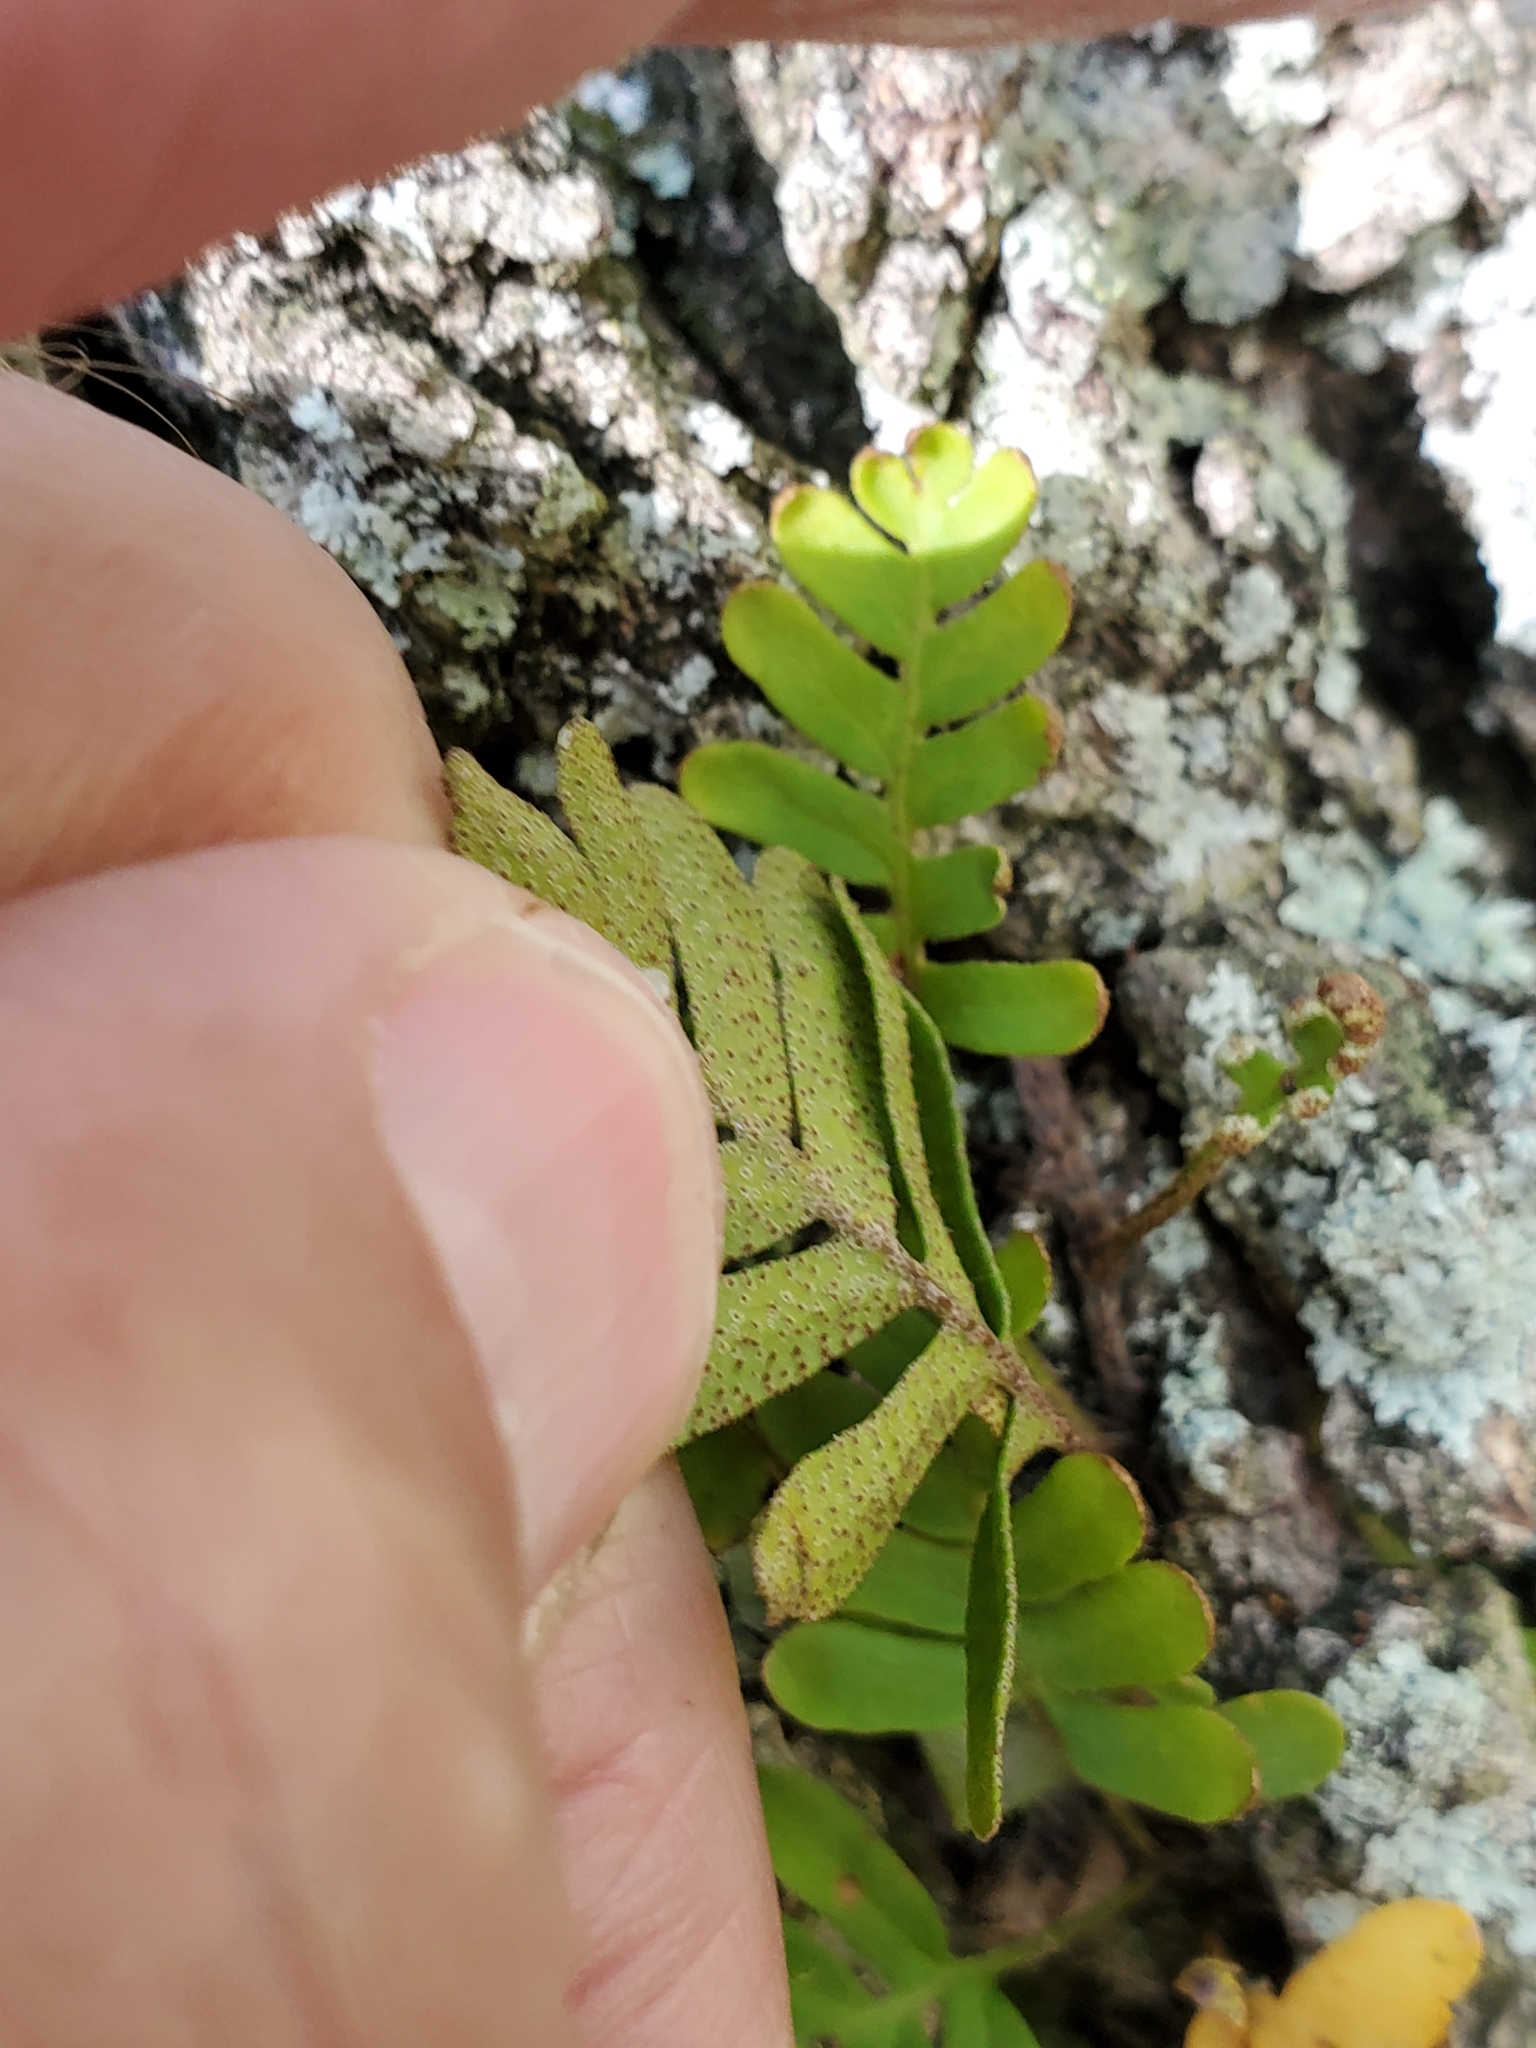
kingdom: Plantae
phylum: Tracheophyta
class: Polypodiopsida
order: Polypodiales
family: Polypodiaceae
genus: Pleopeltis
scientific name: Pleopeltis michauxiana
